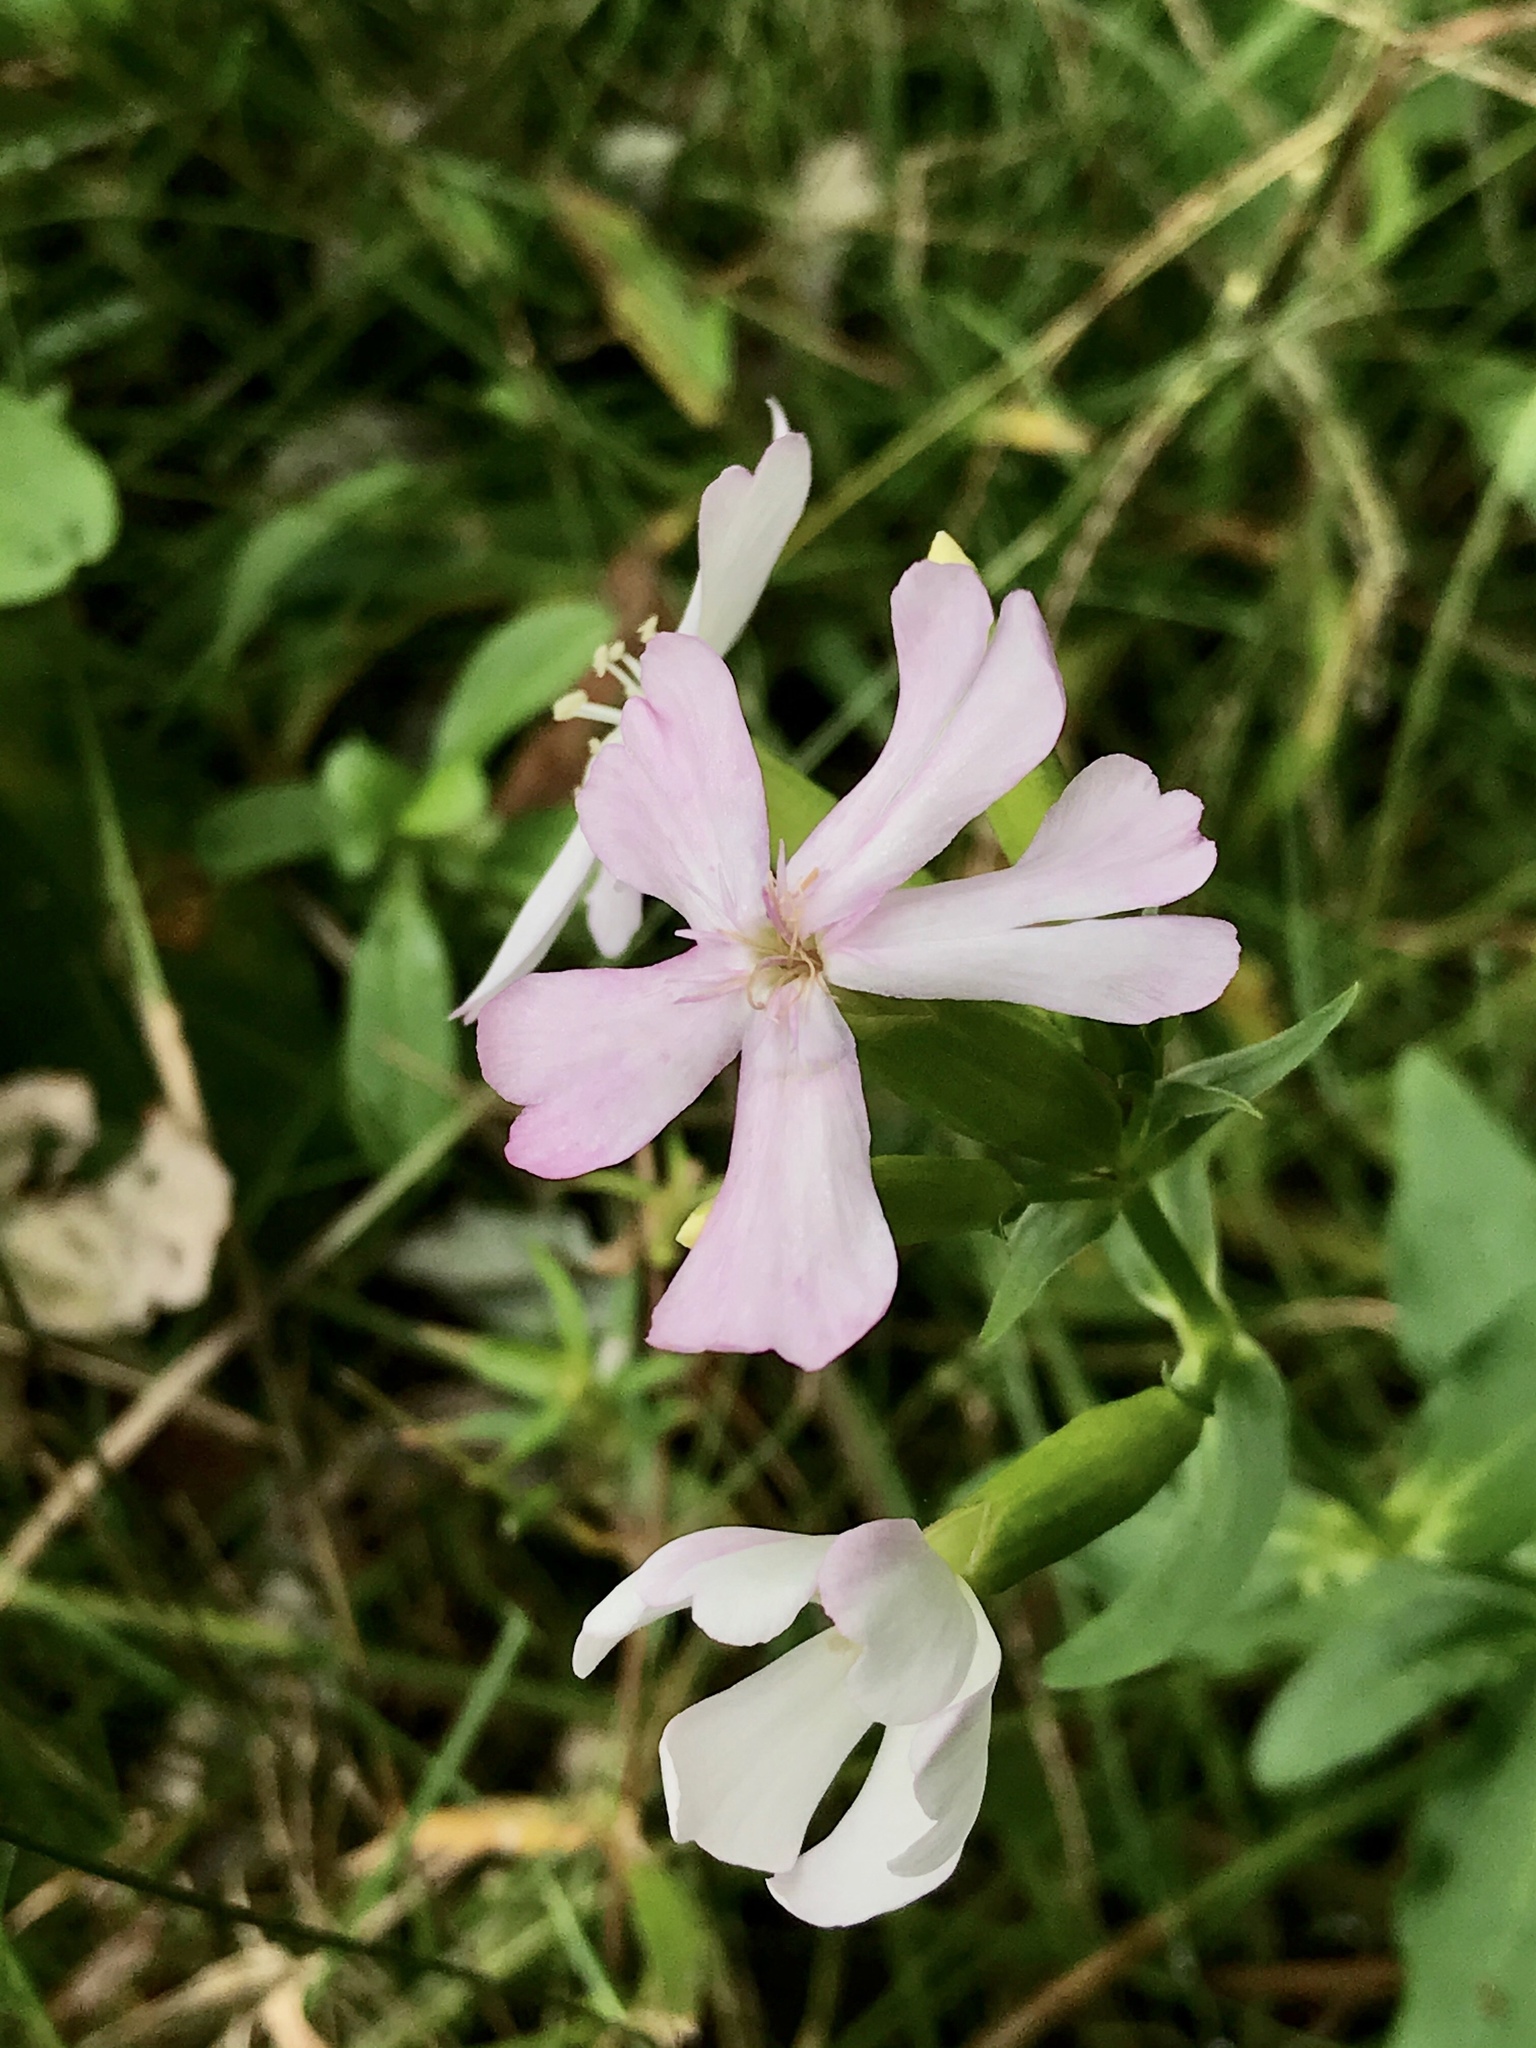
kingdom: Plantae
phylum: Tracheophyta
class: Magnoliopsida
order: Caryophyllales
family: Caryophyllaceae
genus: Saponaria
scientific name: Saponaria officinalis
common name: Soapwort
